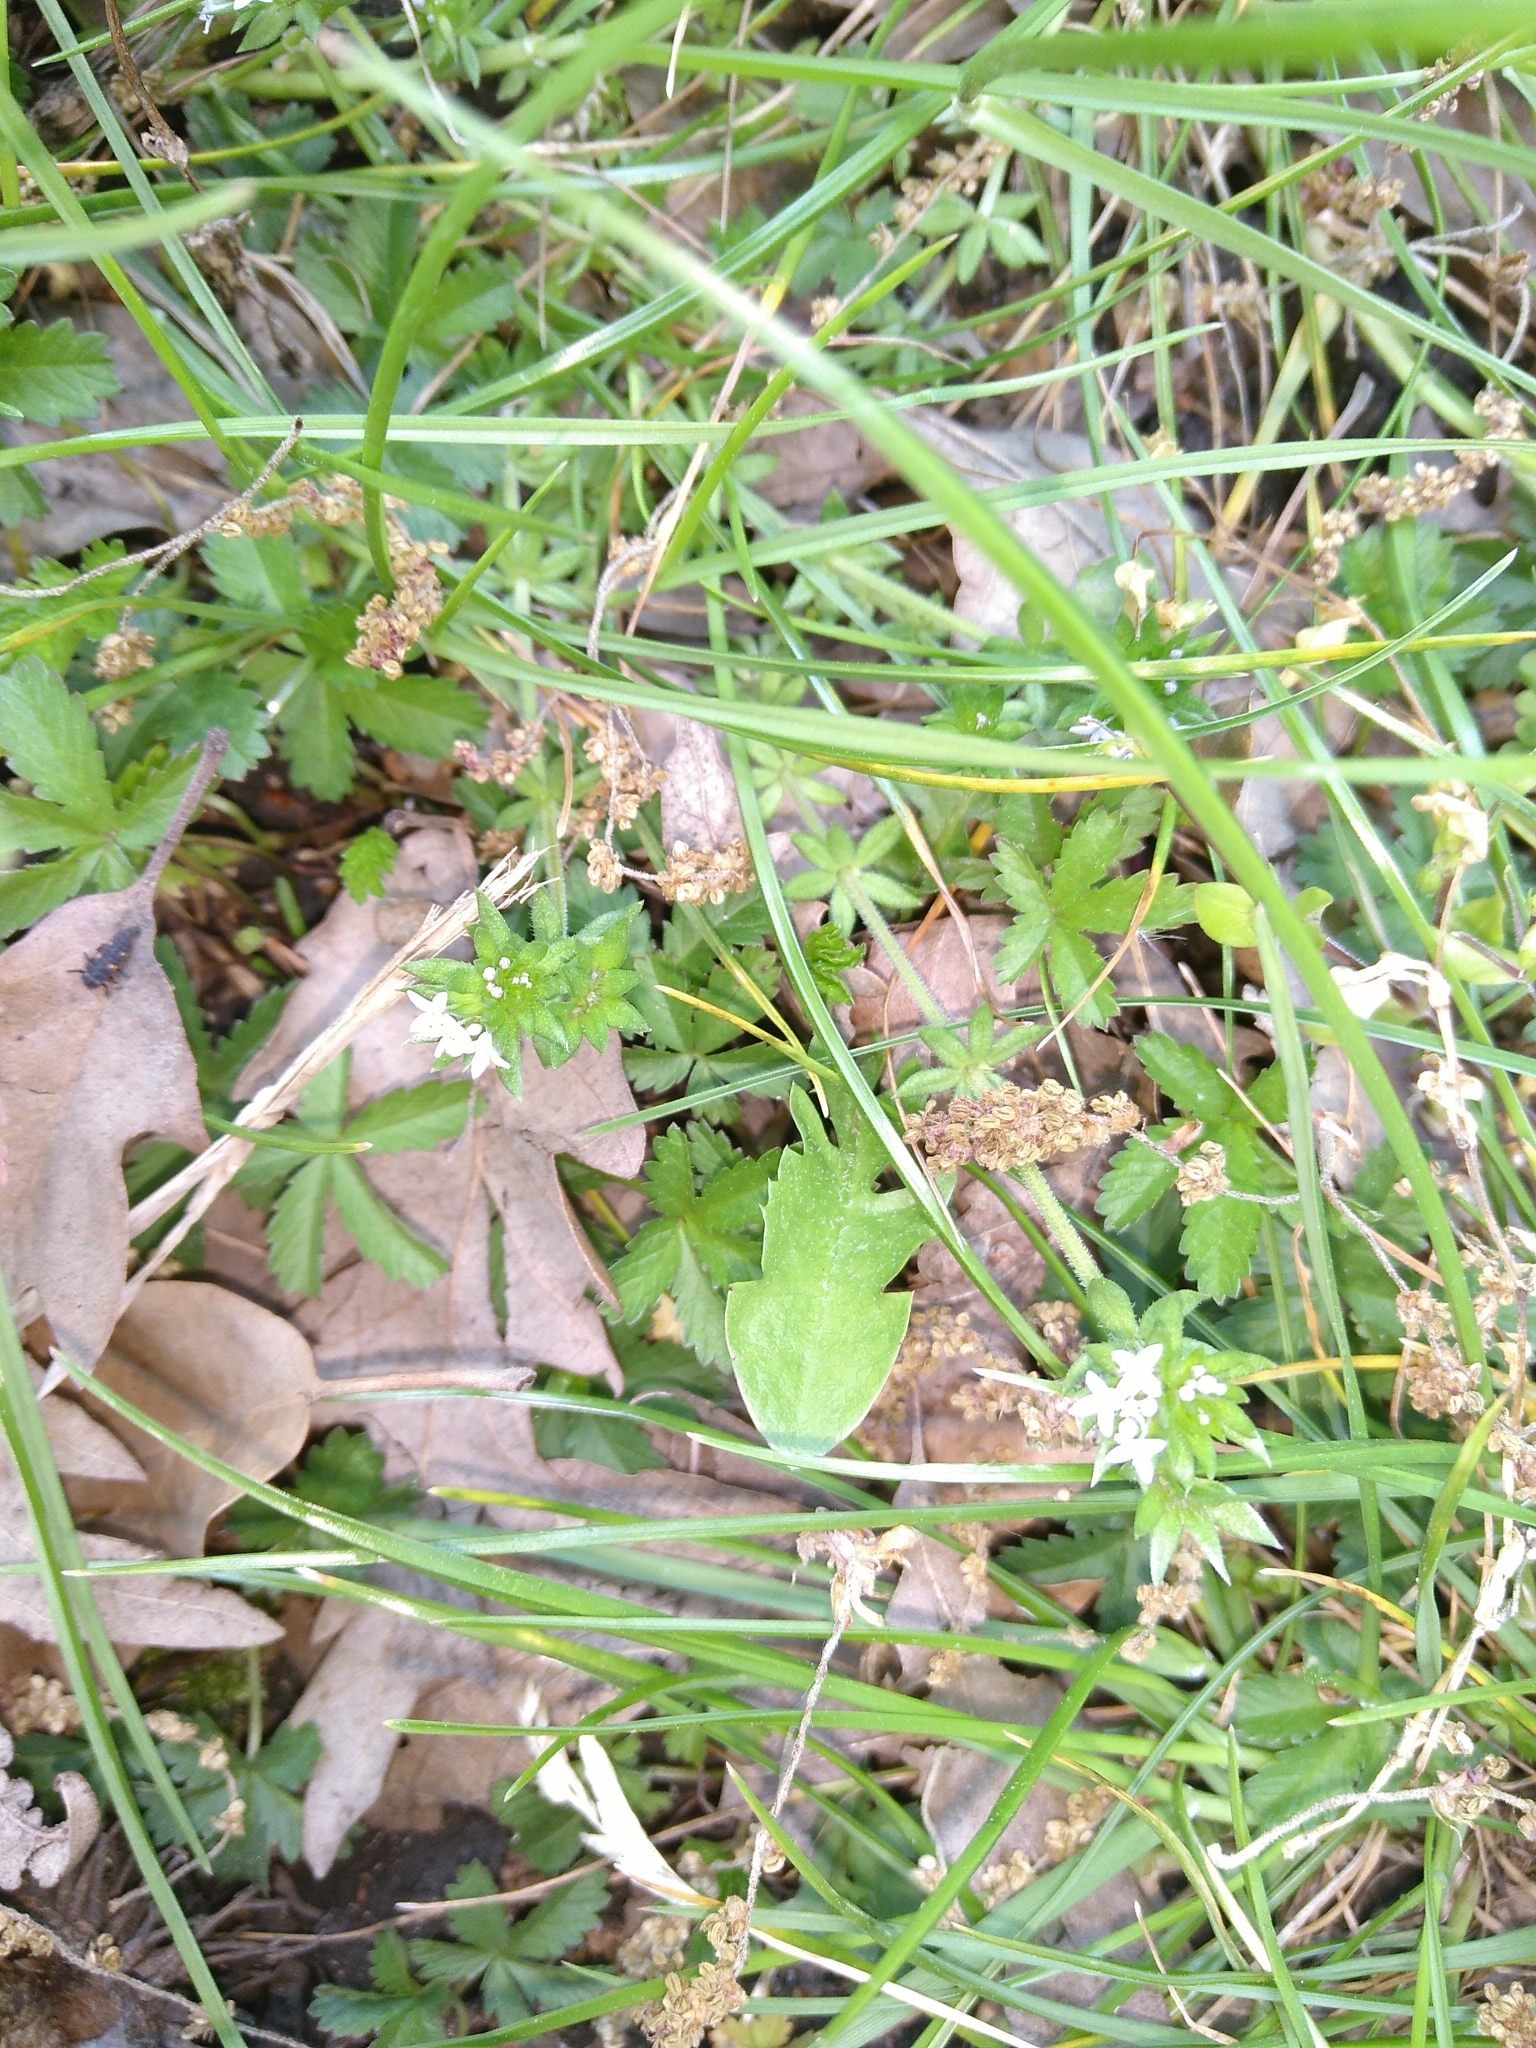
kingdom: Plantae
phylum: Tracheophyta
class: Magnoliopsida
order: Gentianales
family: Rubiaceae
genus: Sherardia
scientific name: Sherardia arvensis
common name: Field madder
